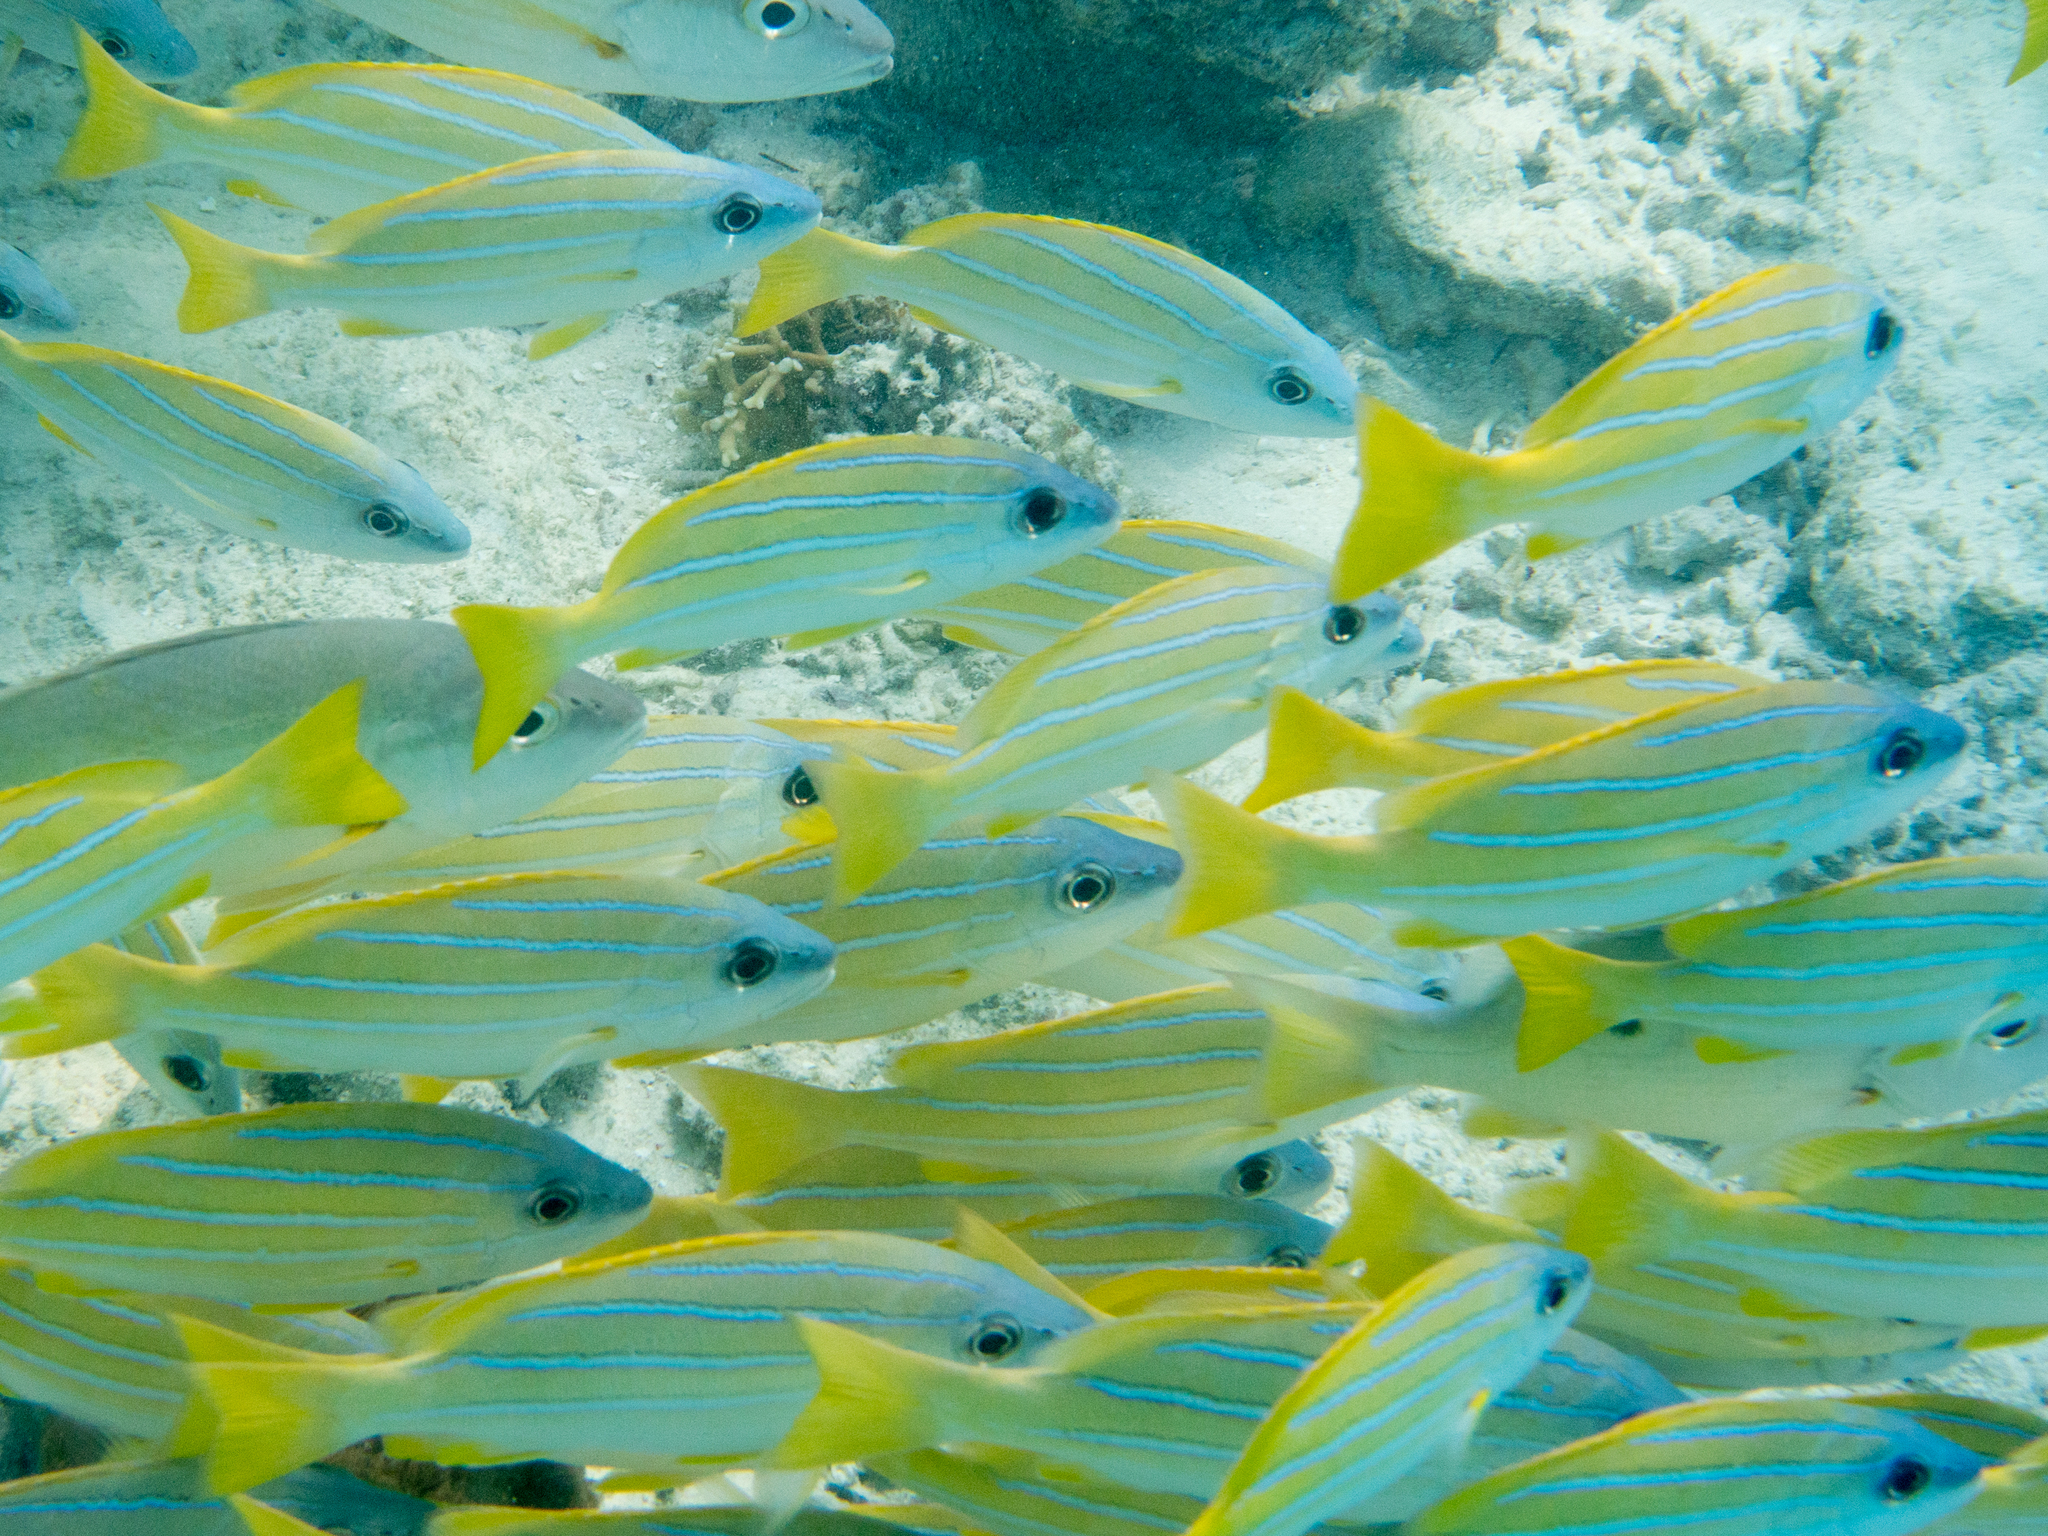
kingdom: Animalia
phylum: Chordata
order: Perciformes
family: Lutjanidae
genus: Lutjanus
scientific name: Lutjanus kasmira
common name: Common bluestripe snapper
